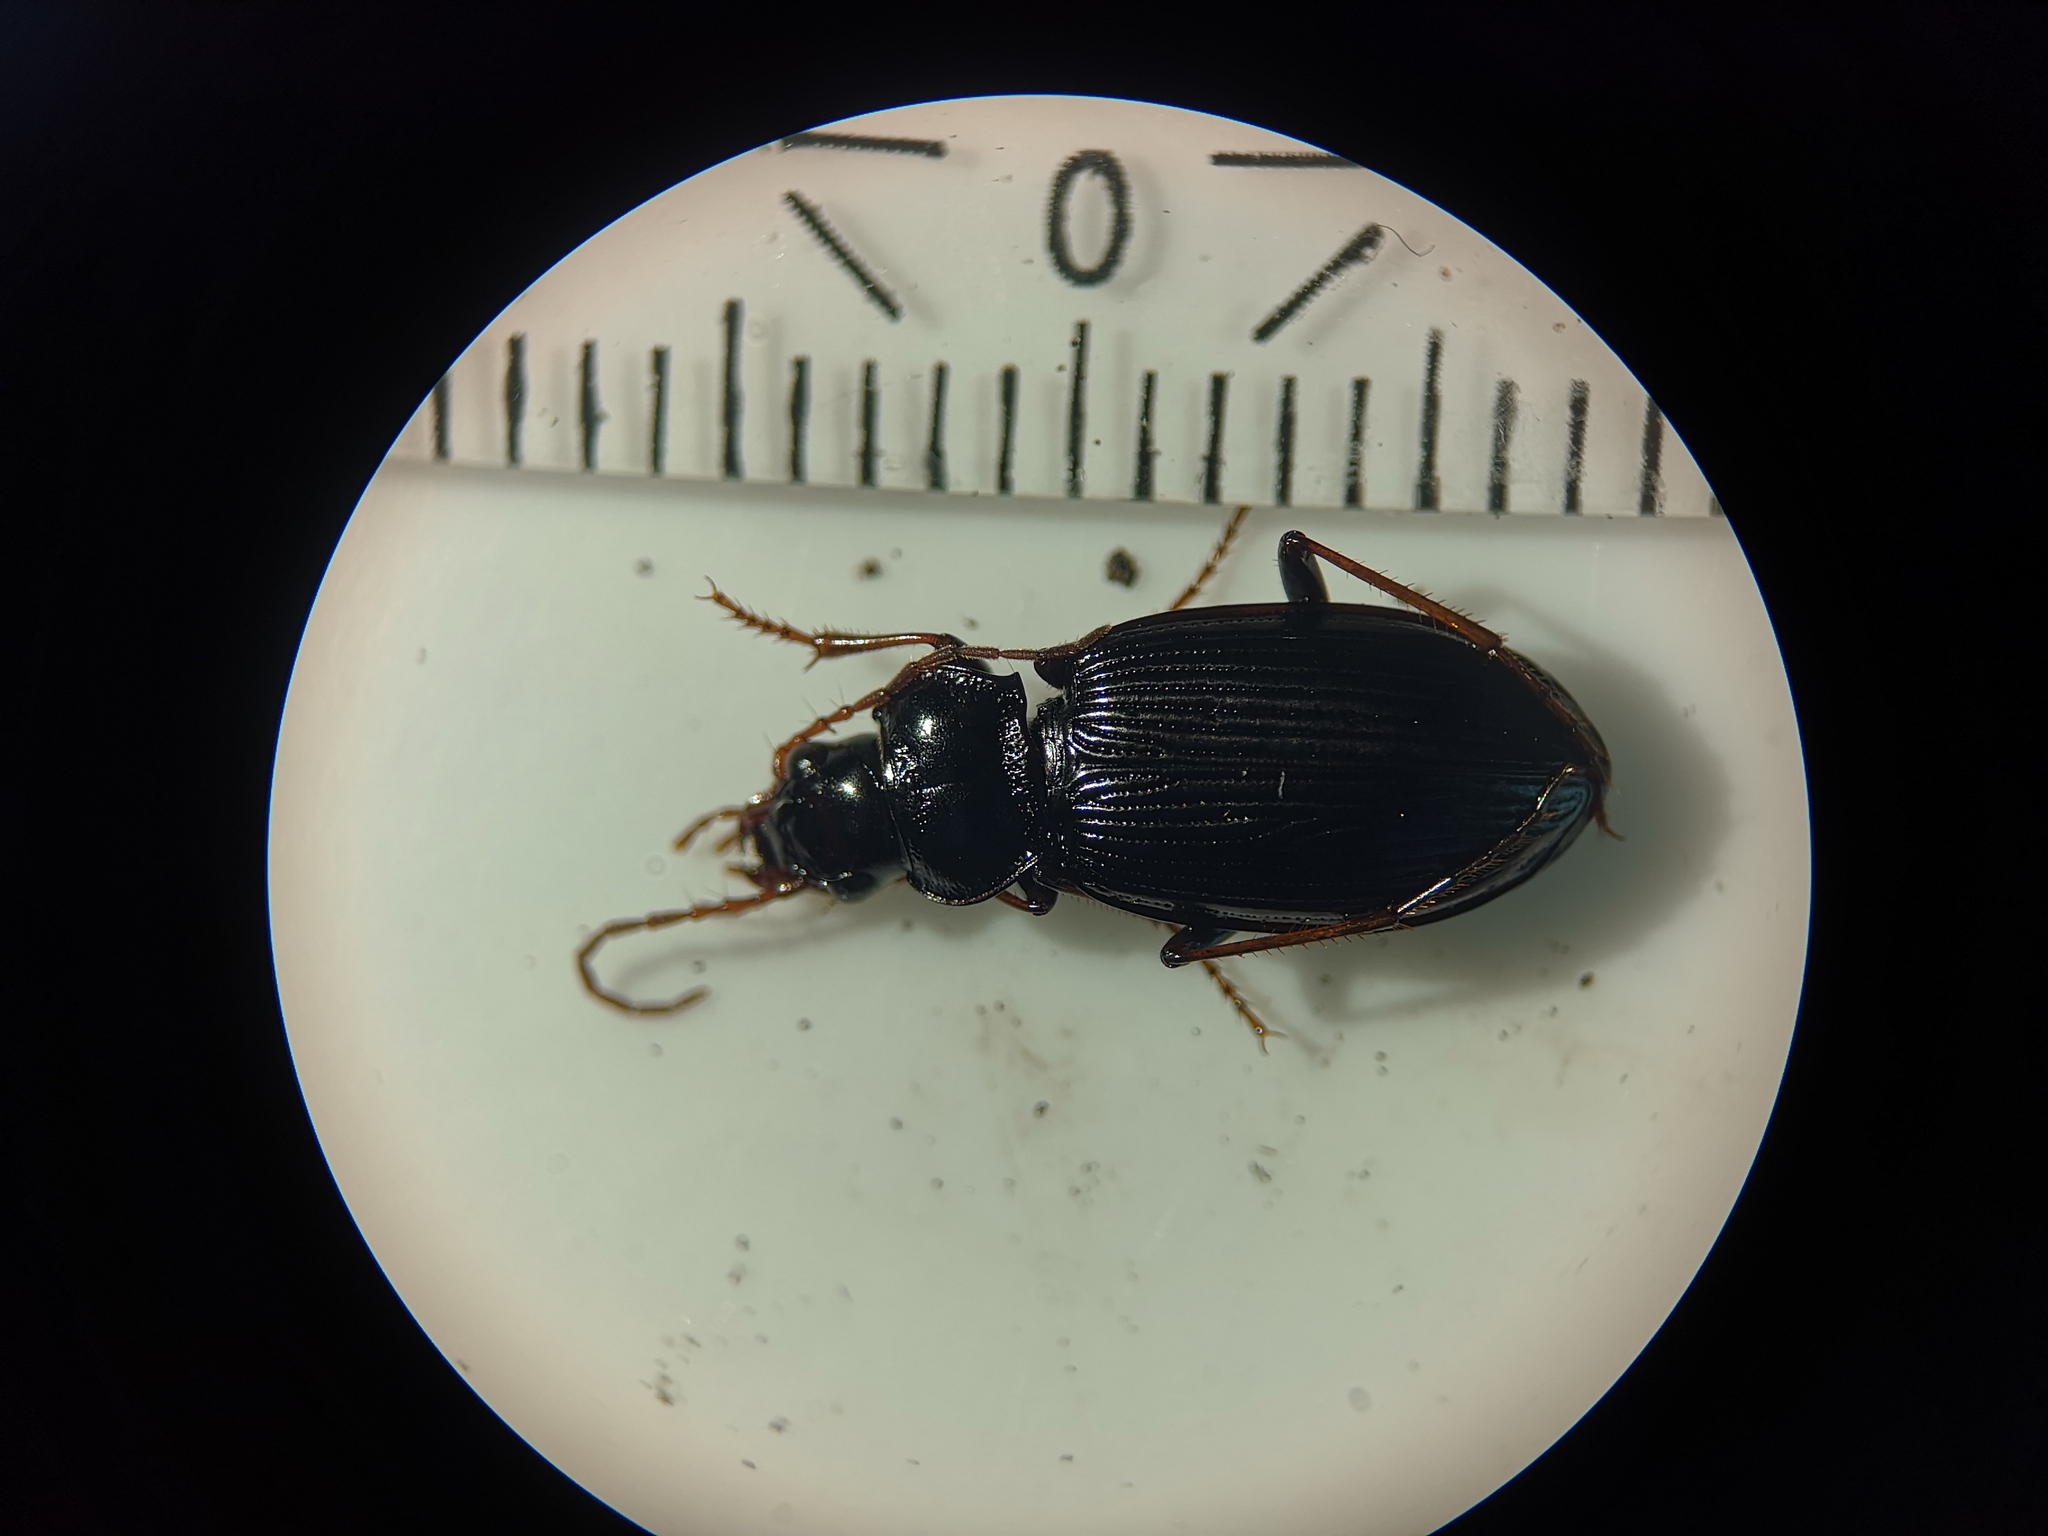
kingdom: Animalia
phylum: Arthropoda
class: Insecta
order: Coleoptera
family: Carabidae
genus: Nebria
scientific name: Nebria brevicollis
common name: Short-necked gazelle beetle
